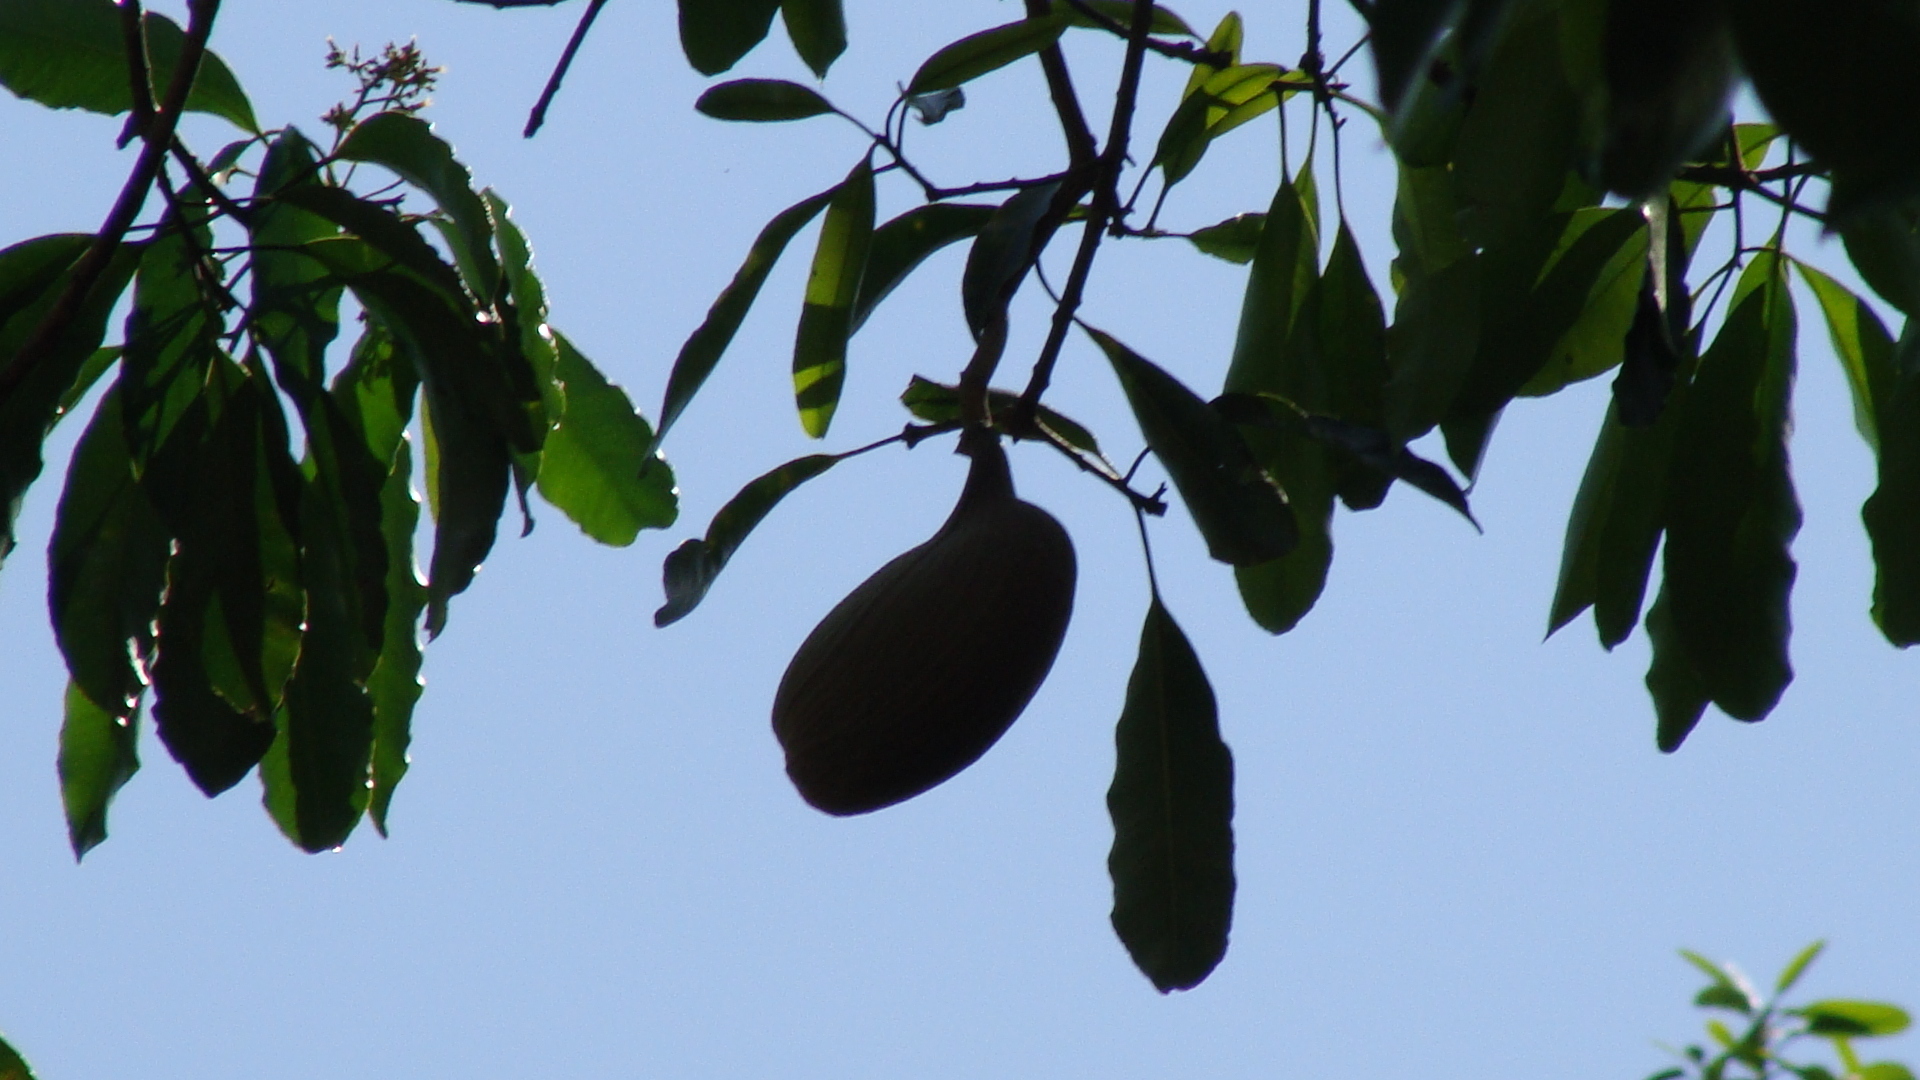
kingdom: Plantae
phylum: Tracheophyta
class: Magnoliopsida
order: Gentianales
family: Apocynaceae
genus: Aspidosperma
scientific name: Aspidosperma cruentum
